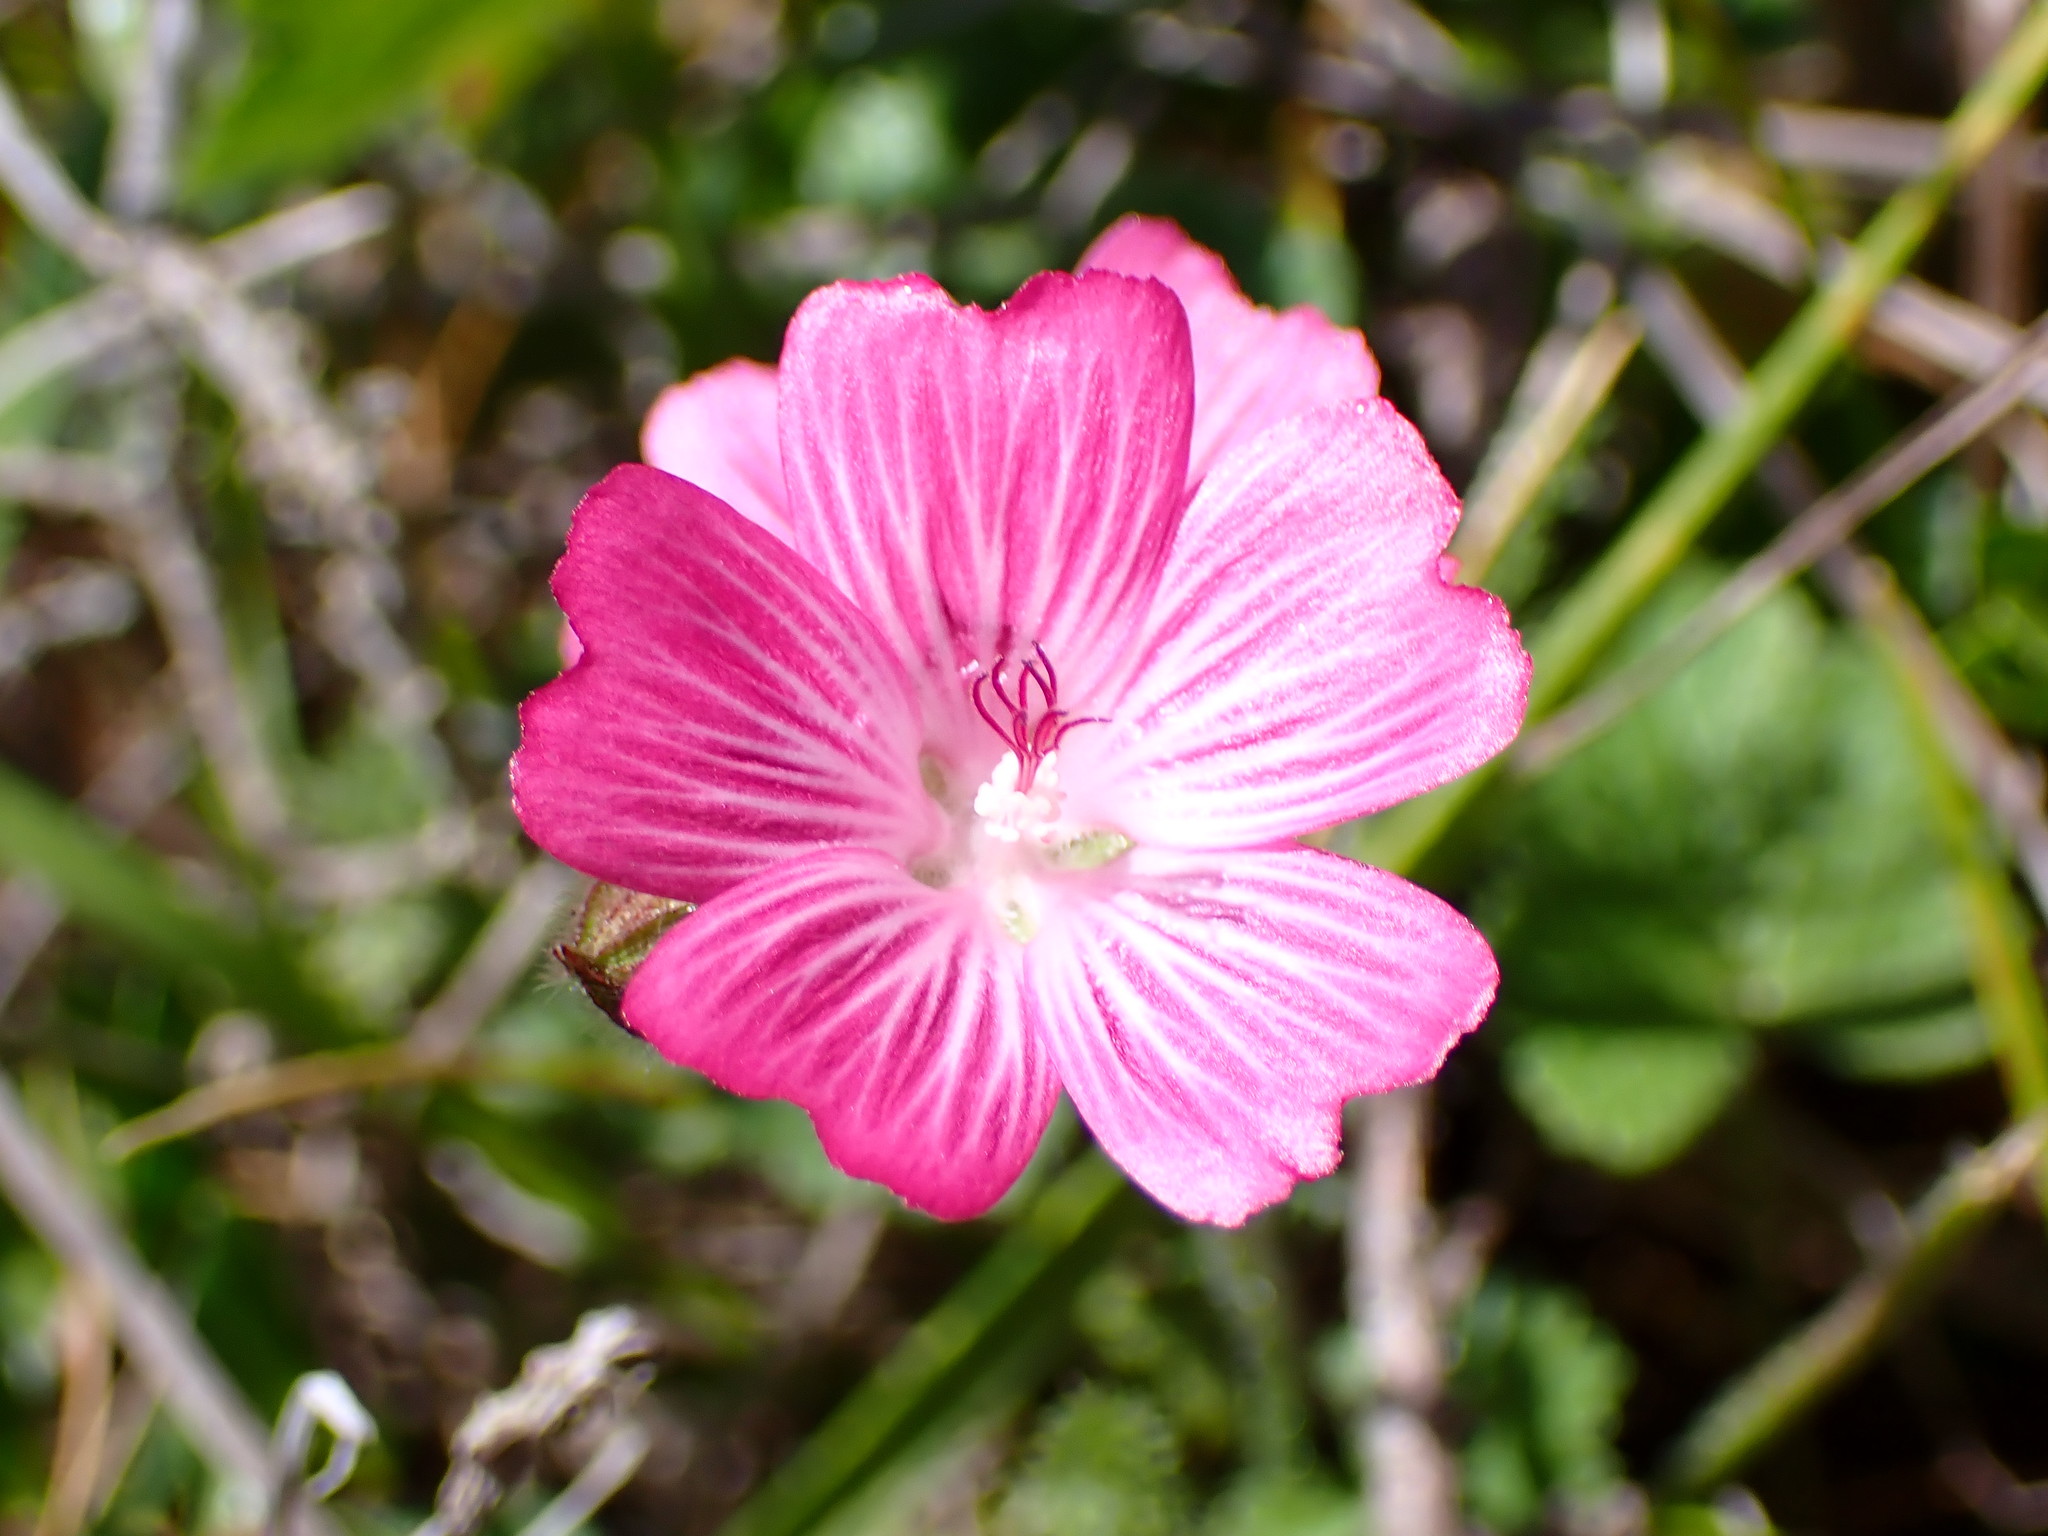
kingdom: Plantae
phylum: Tracheophyta
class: Magnoliopsida
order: Malvales
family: Malvaceae
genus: Sidalcea
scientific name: Sidalcea malviflora
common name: Greek mallow
